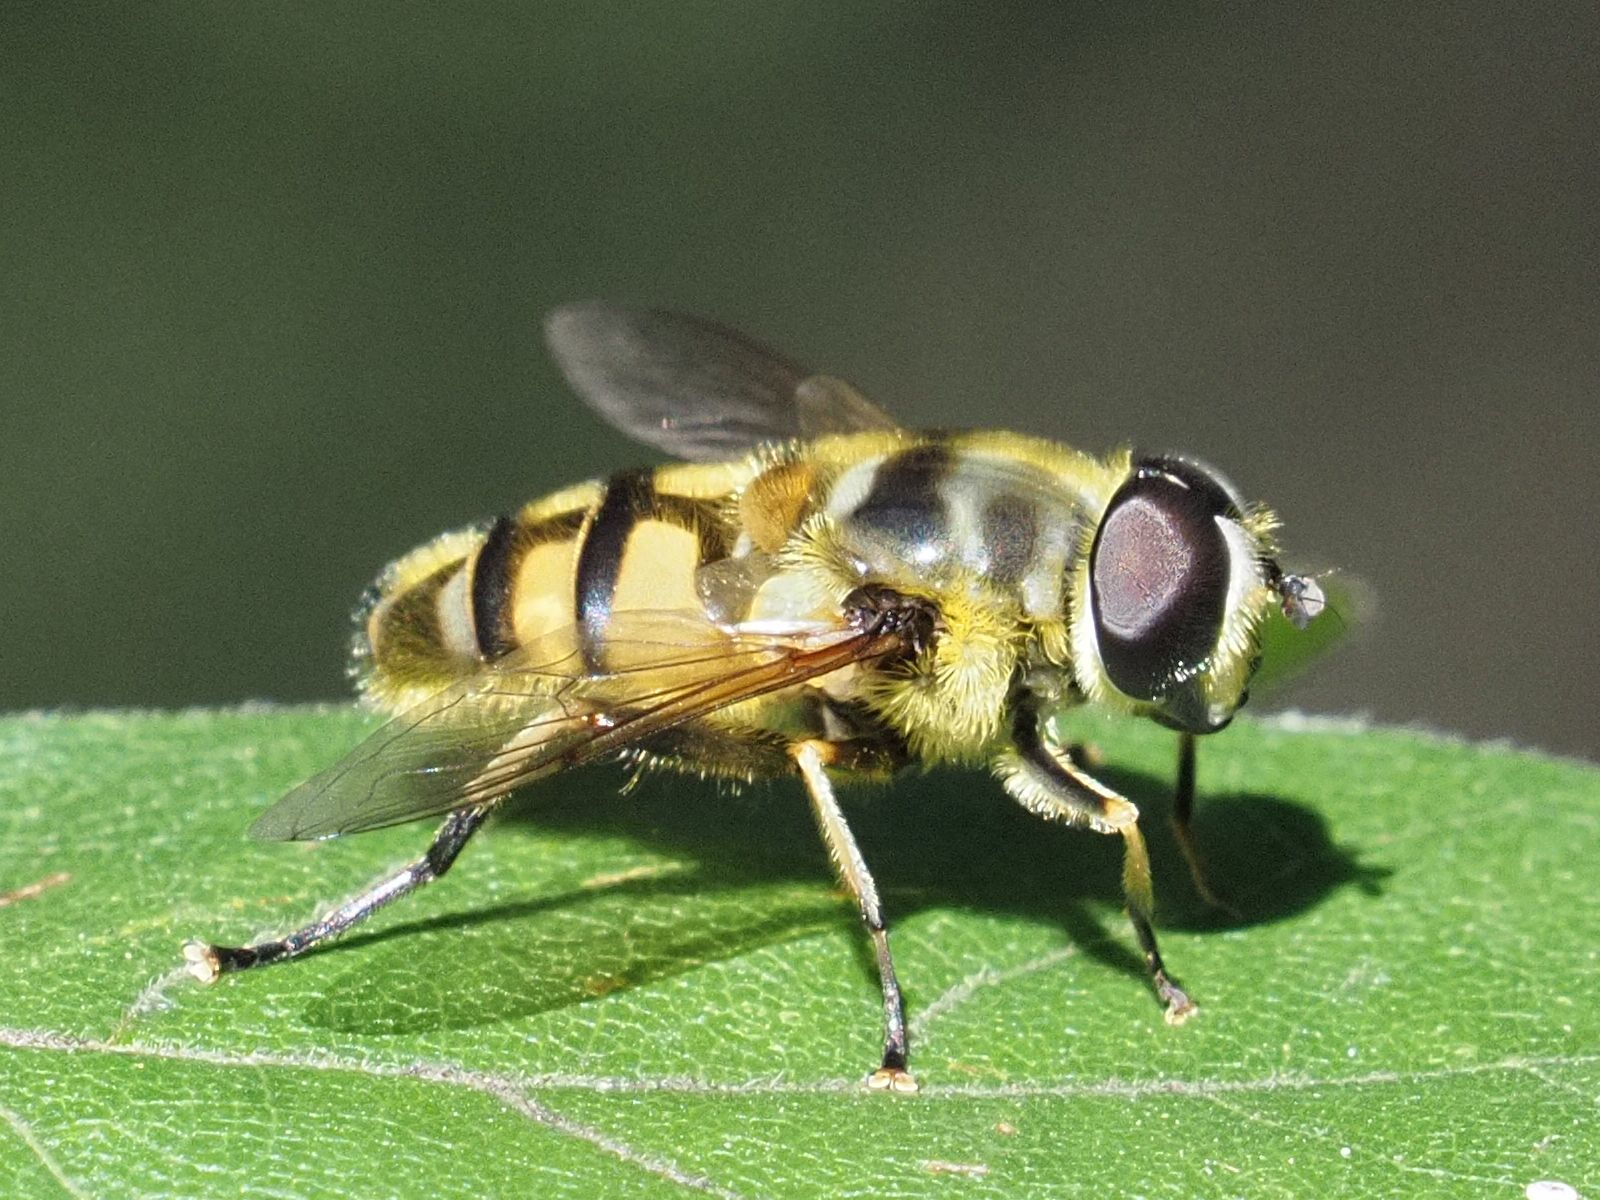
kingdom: Animalia
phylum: Arthropoda
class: Insecta
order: Diptera
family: Syrphidae
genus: Myathropa
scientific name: Myathropa florea
